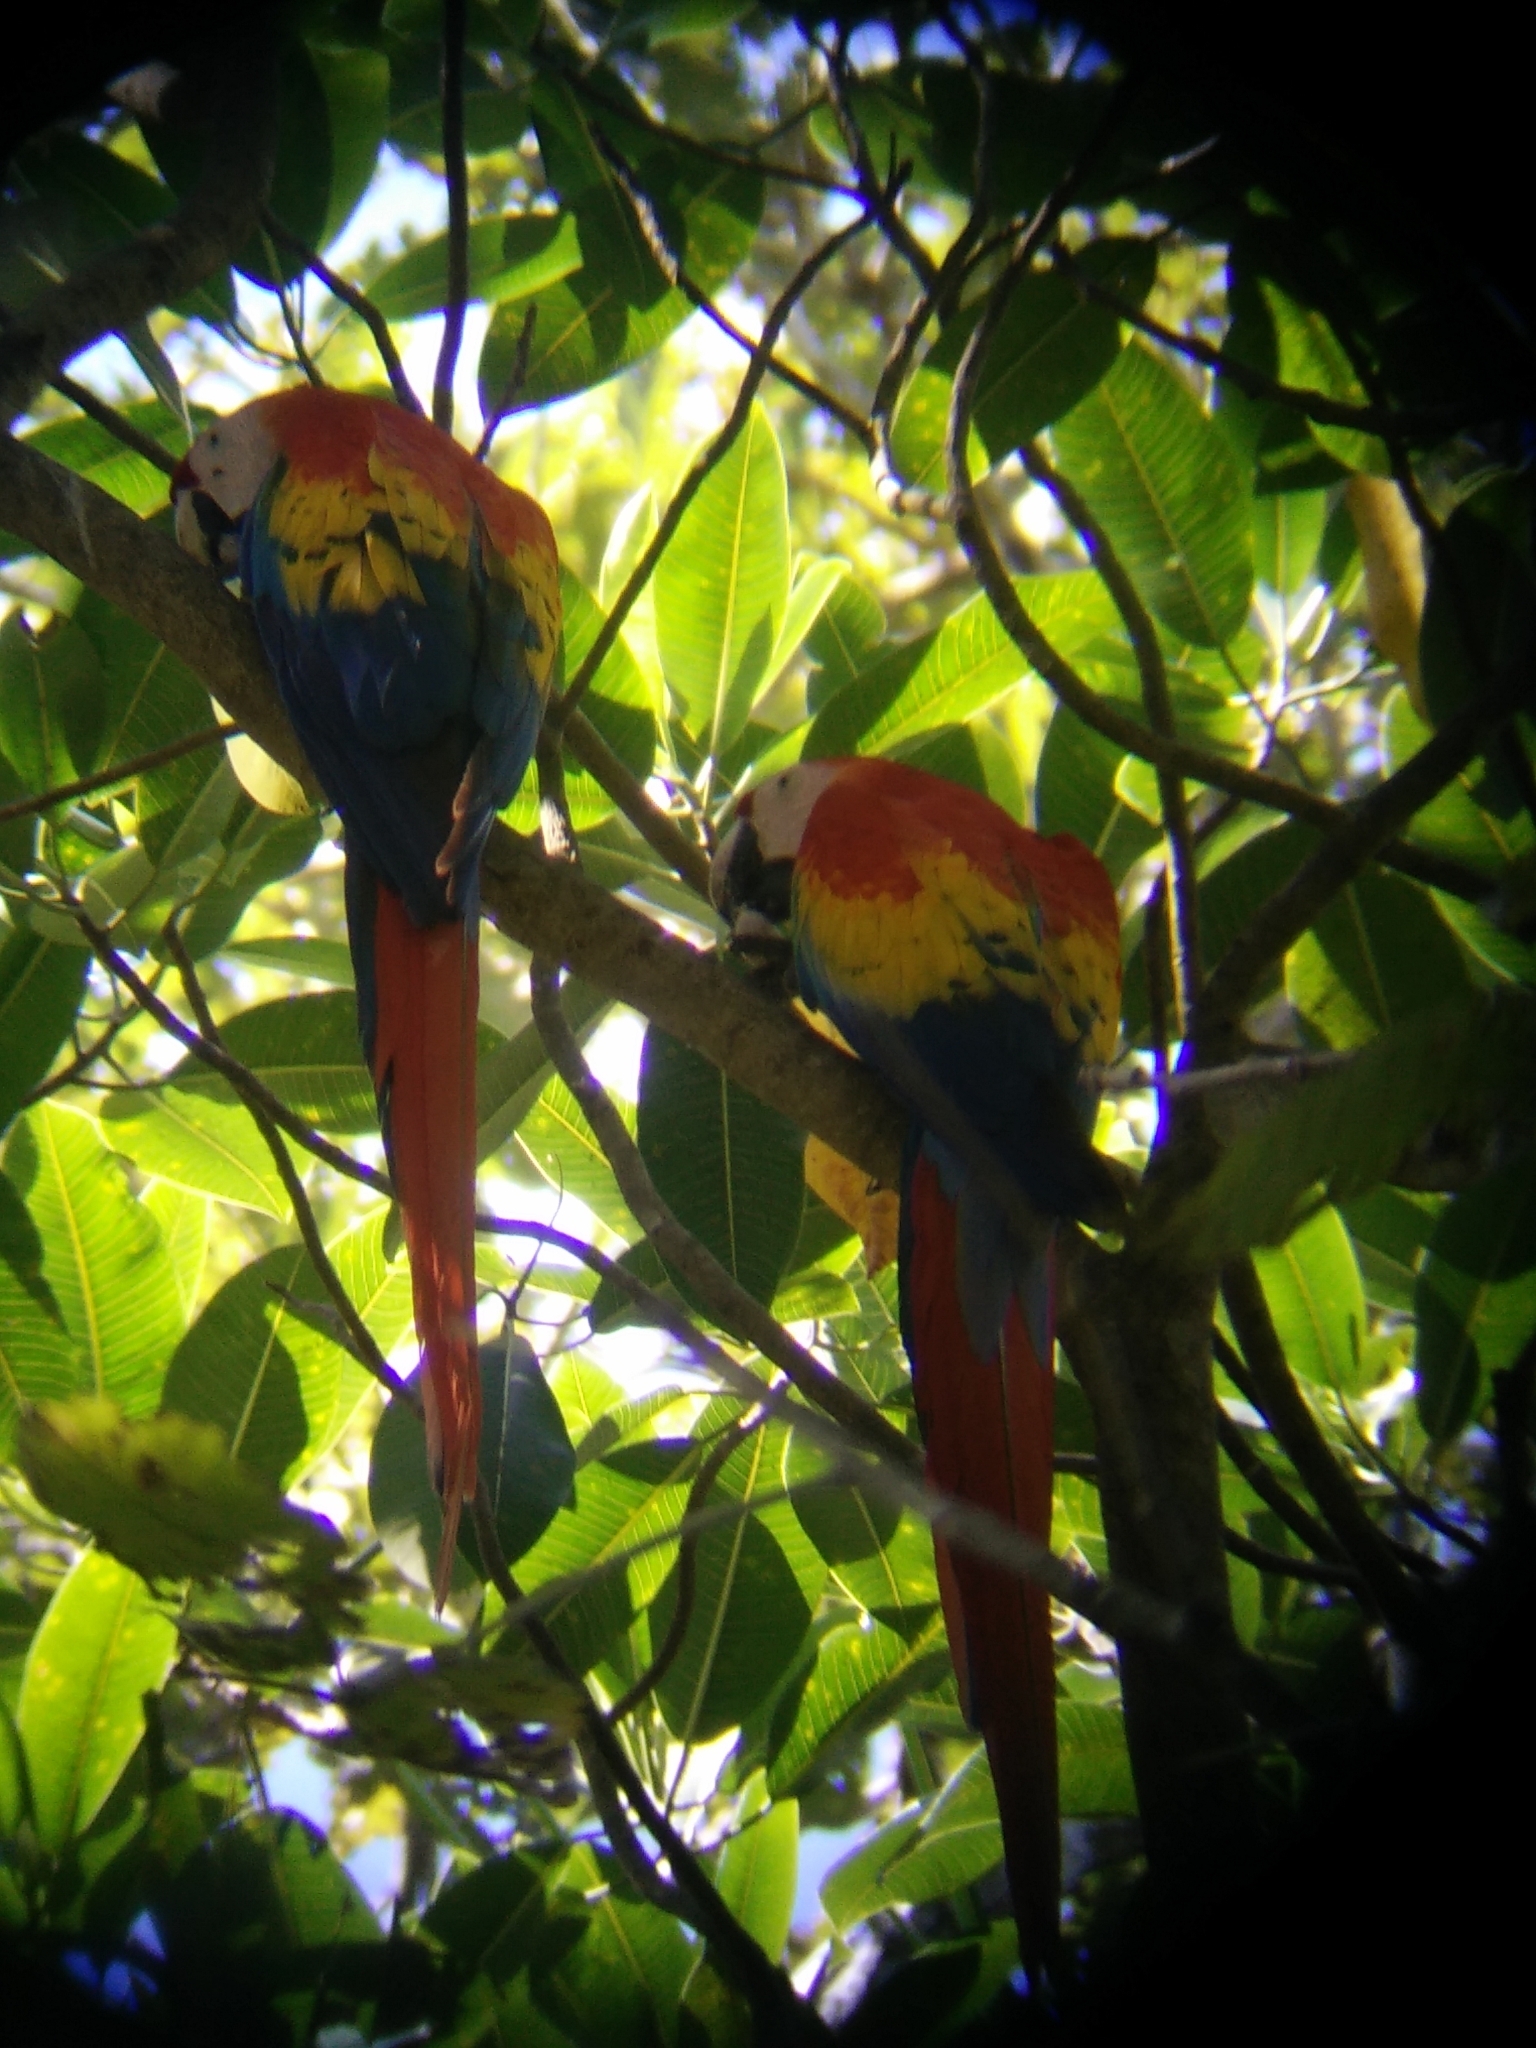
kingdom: Animalia
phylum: Chordata
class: Aves
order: Psittaciformes
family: Psittacidae
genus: Ara
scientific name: Ara macao
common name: Scarlet macaw
